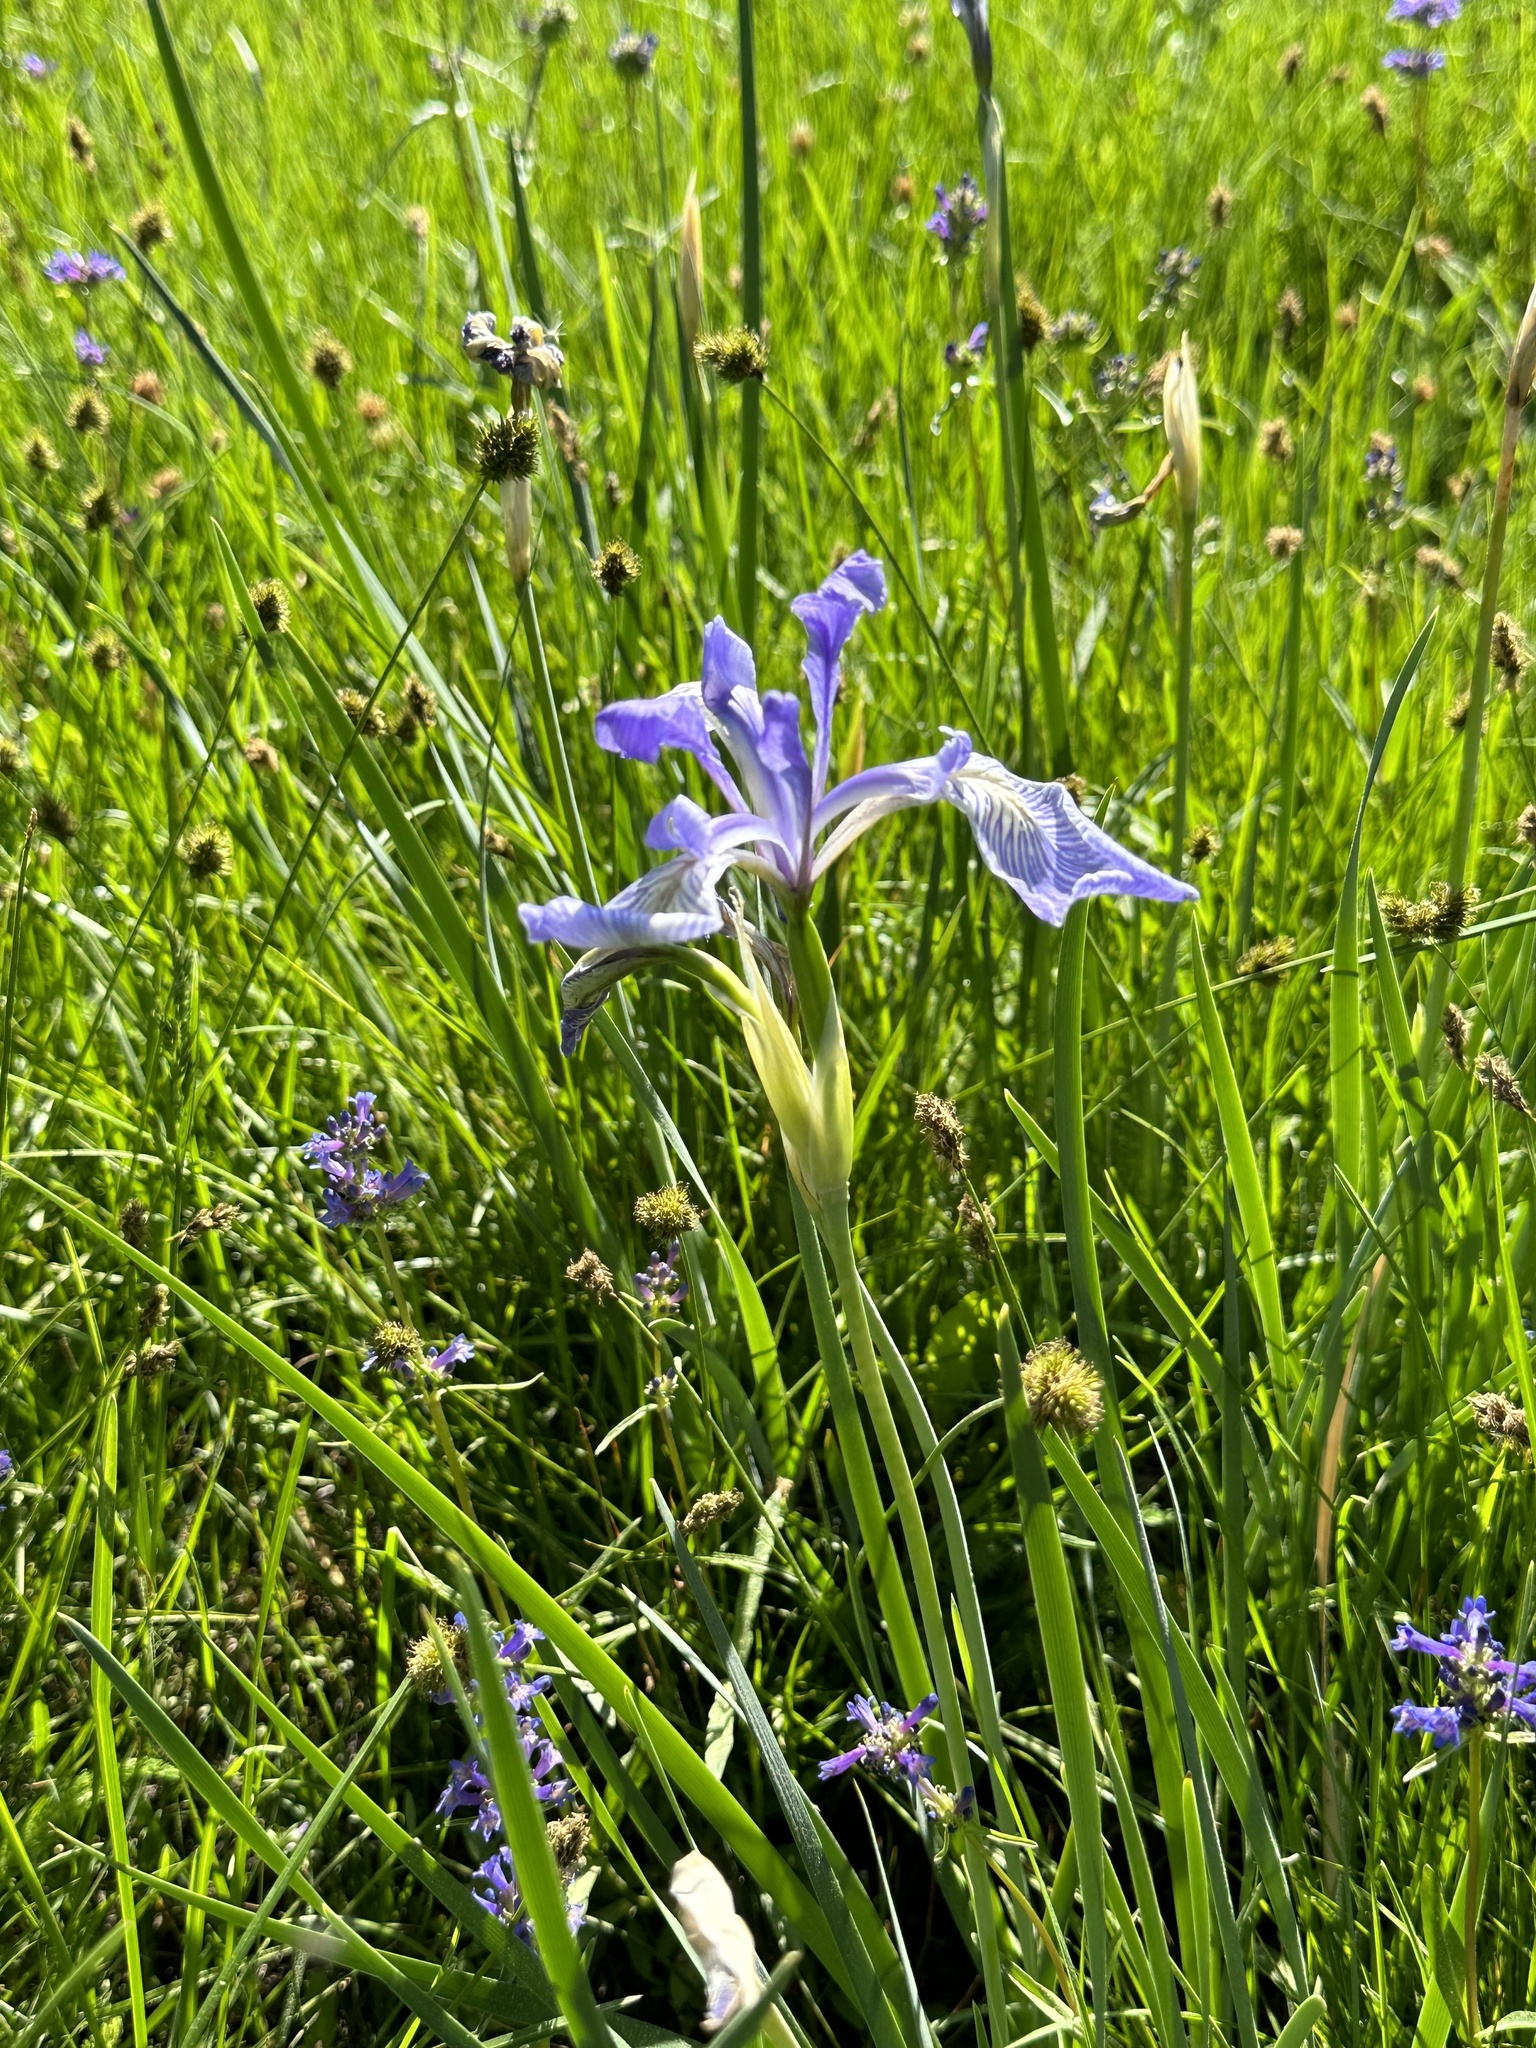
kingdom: Plantae
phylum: Tracheophyta
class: Liliopsida
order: Asparagales
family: Iridaceae
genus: Iris
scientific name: Iris missouriensis
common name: Rocky mountain iris
